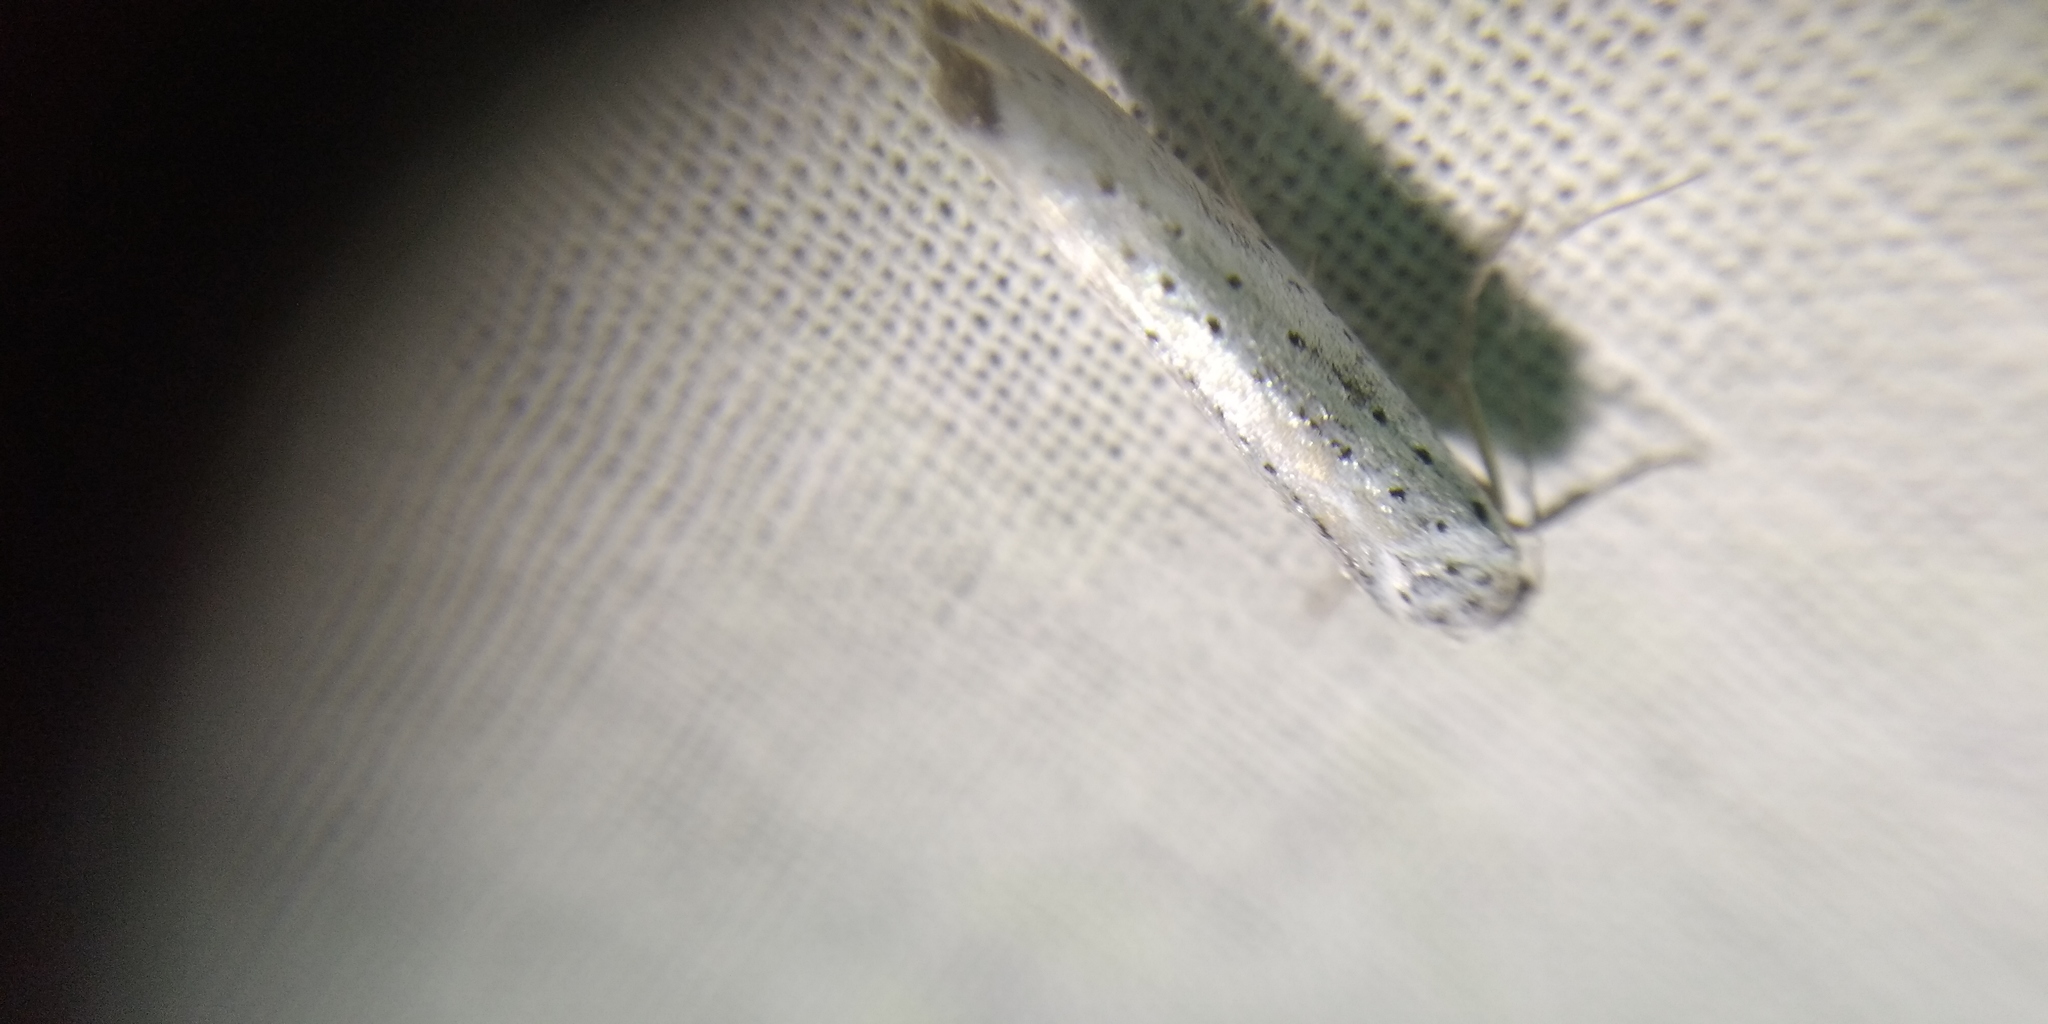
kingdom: Animalia
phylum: Arthropoda
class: Insecta
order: Lepidoptera
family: Yponomeutidae
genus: Yponomeuta
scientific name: Yponomeuta evonymella
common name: Bird-cherry ermine
